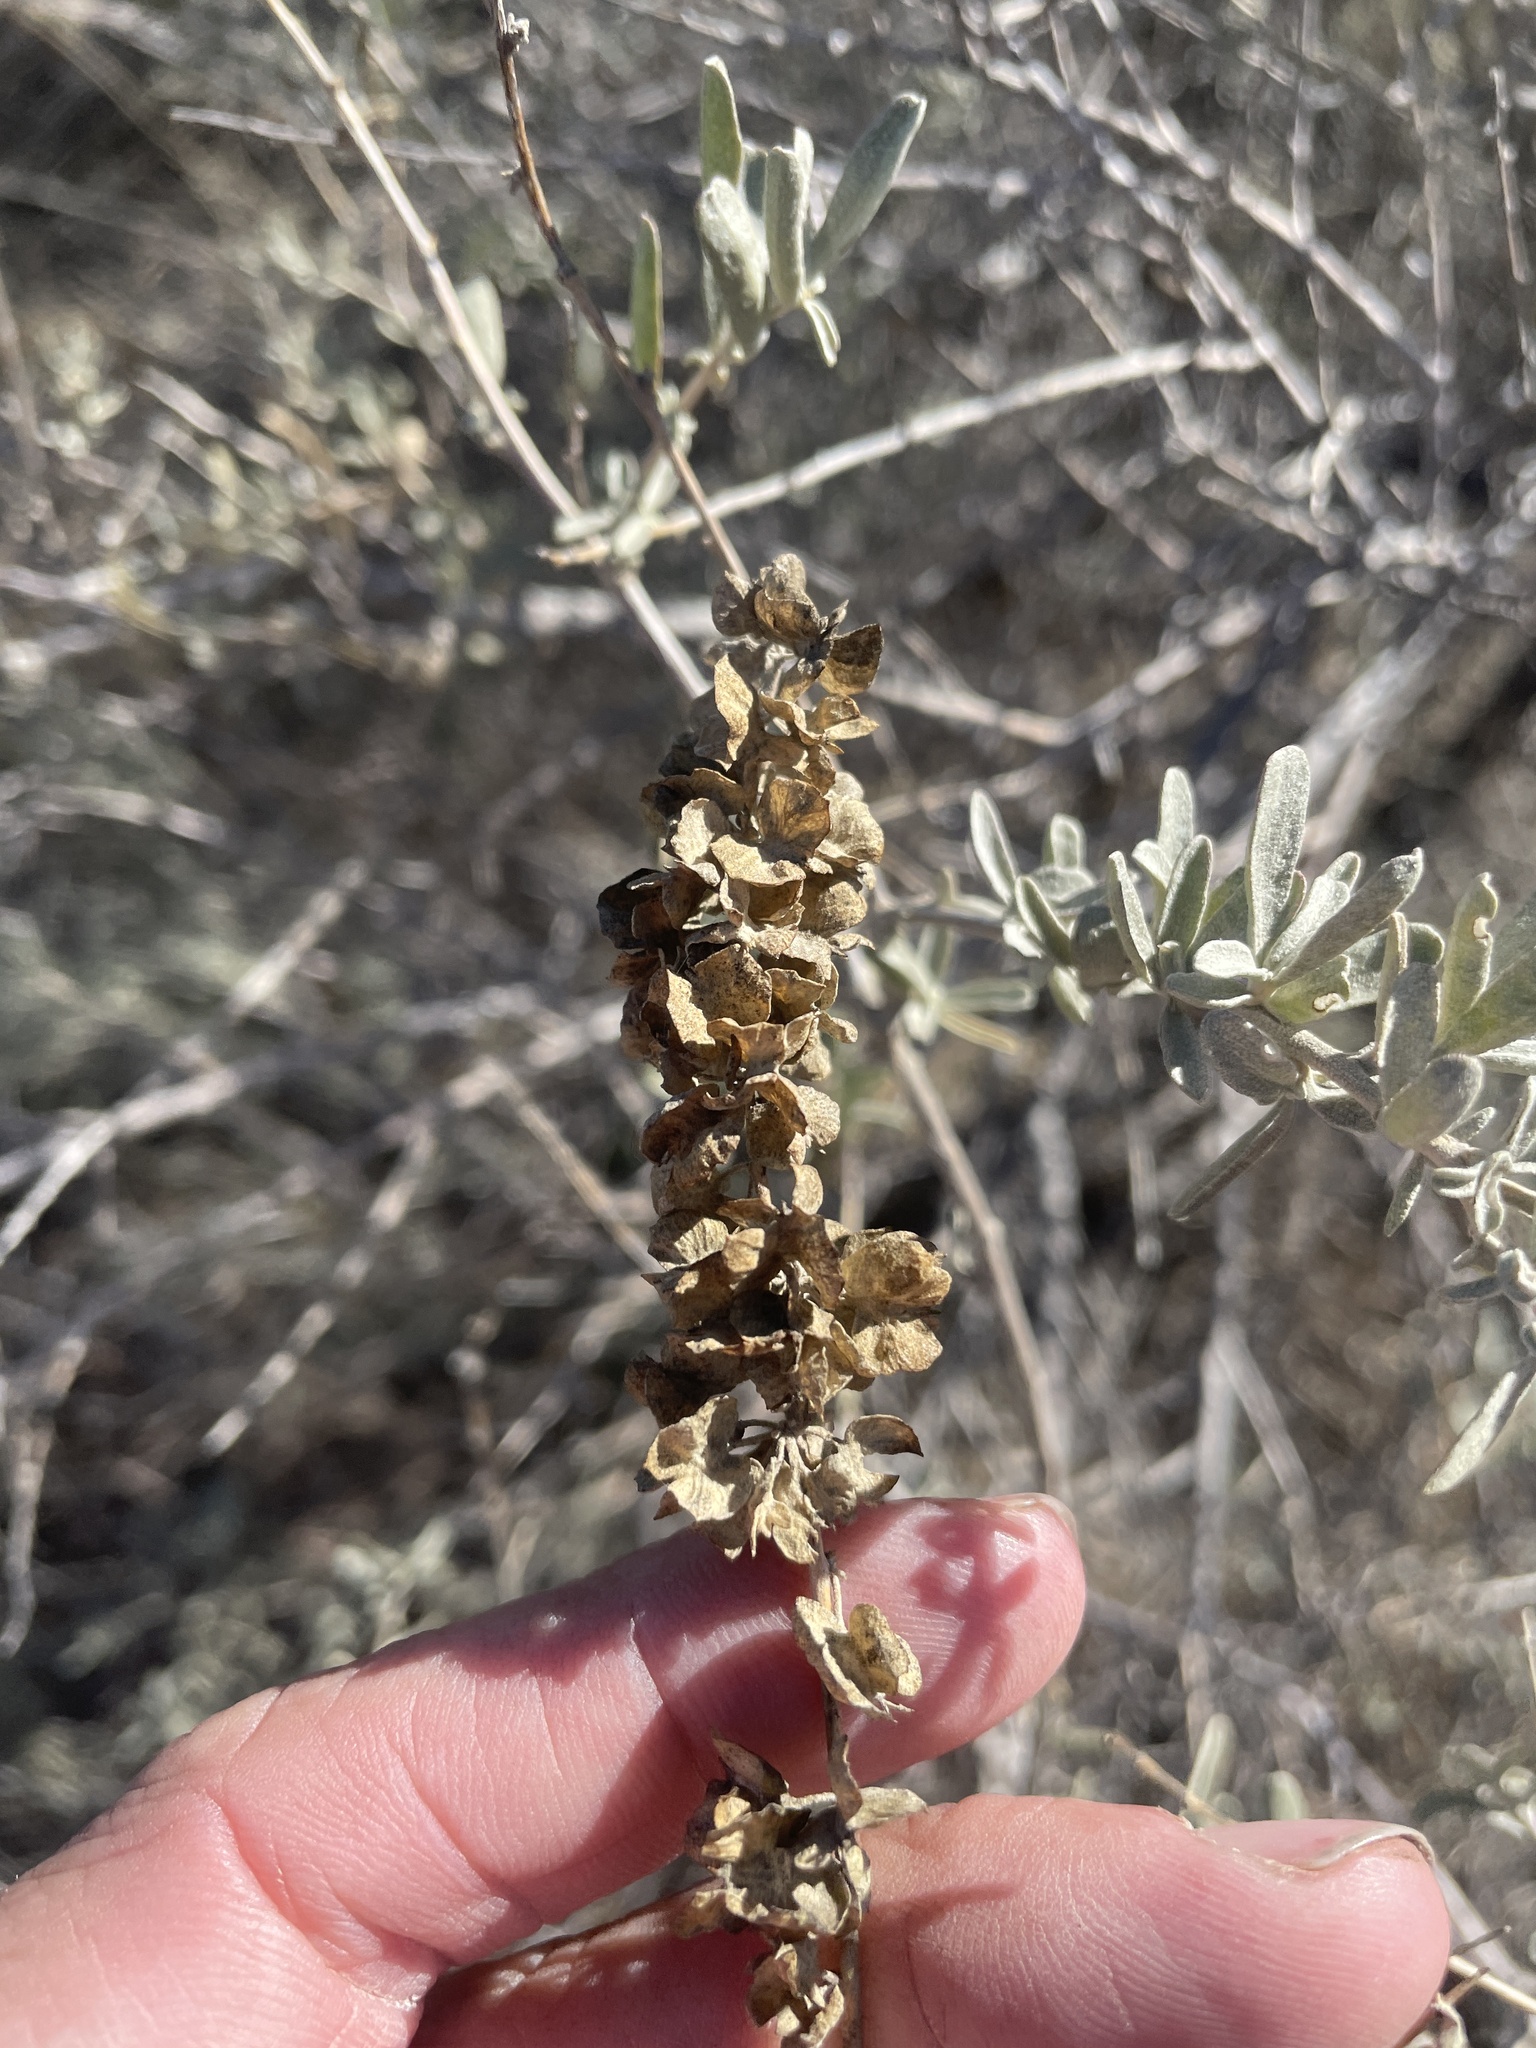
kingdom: Plantae
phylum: Tracheophyta
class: Magnoliopsida
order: Caryophyllales
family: Amaranthaceae
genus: Atriplex
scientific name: Atriplex canescens
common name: Four-wing saltbush
